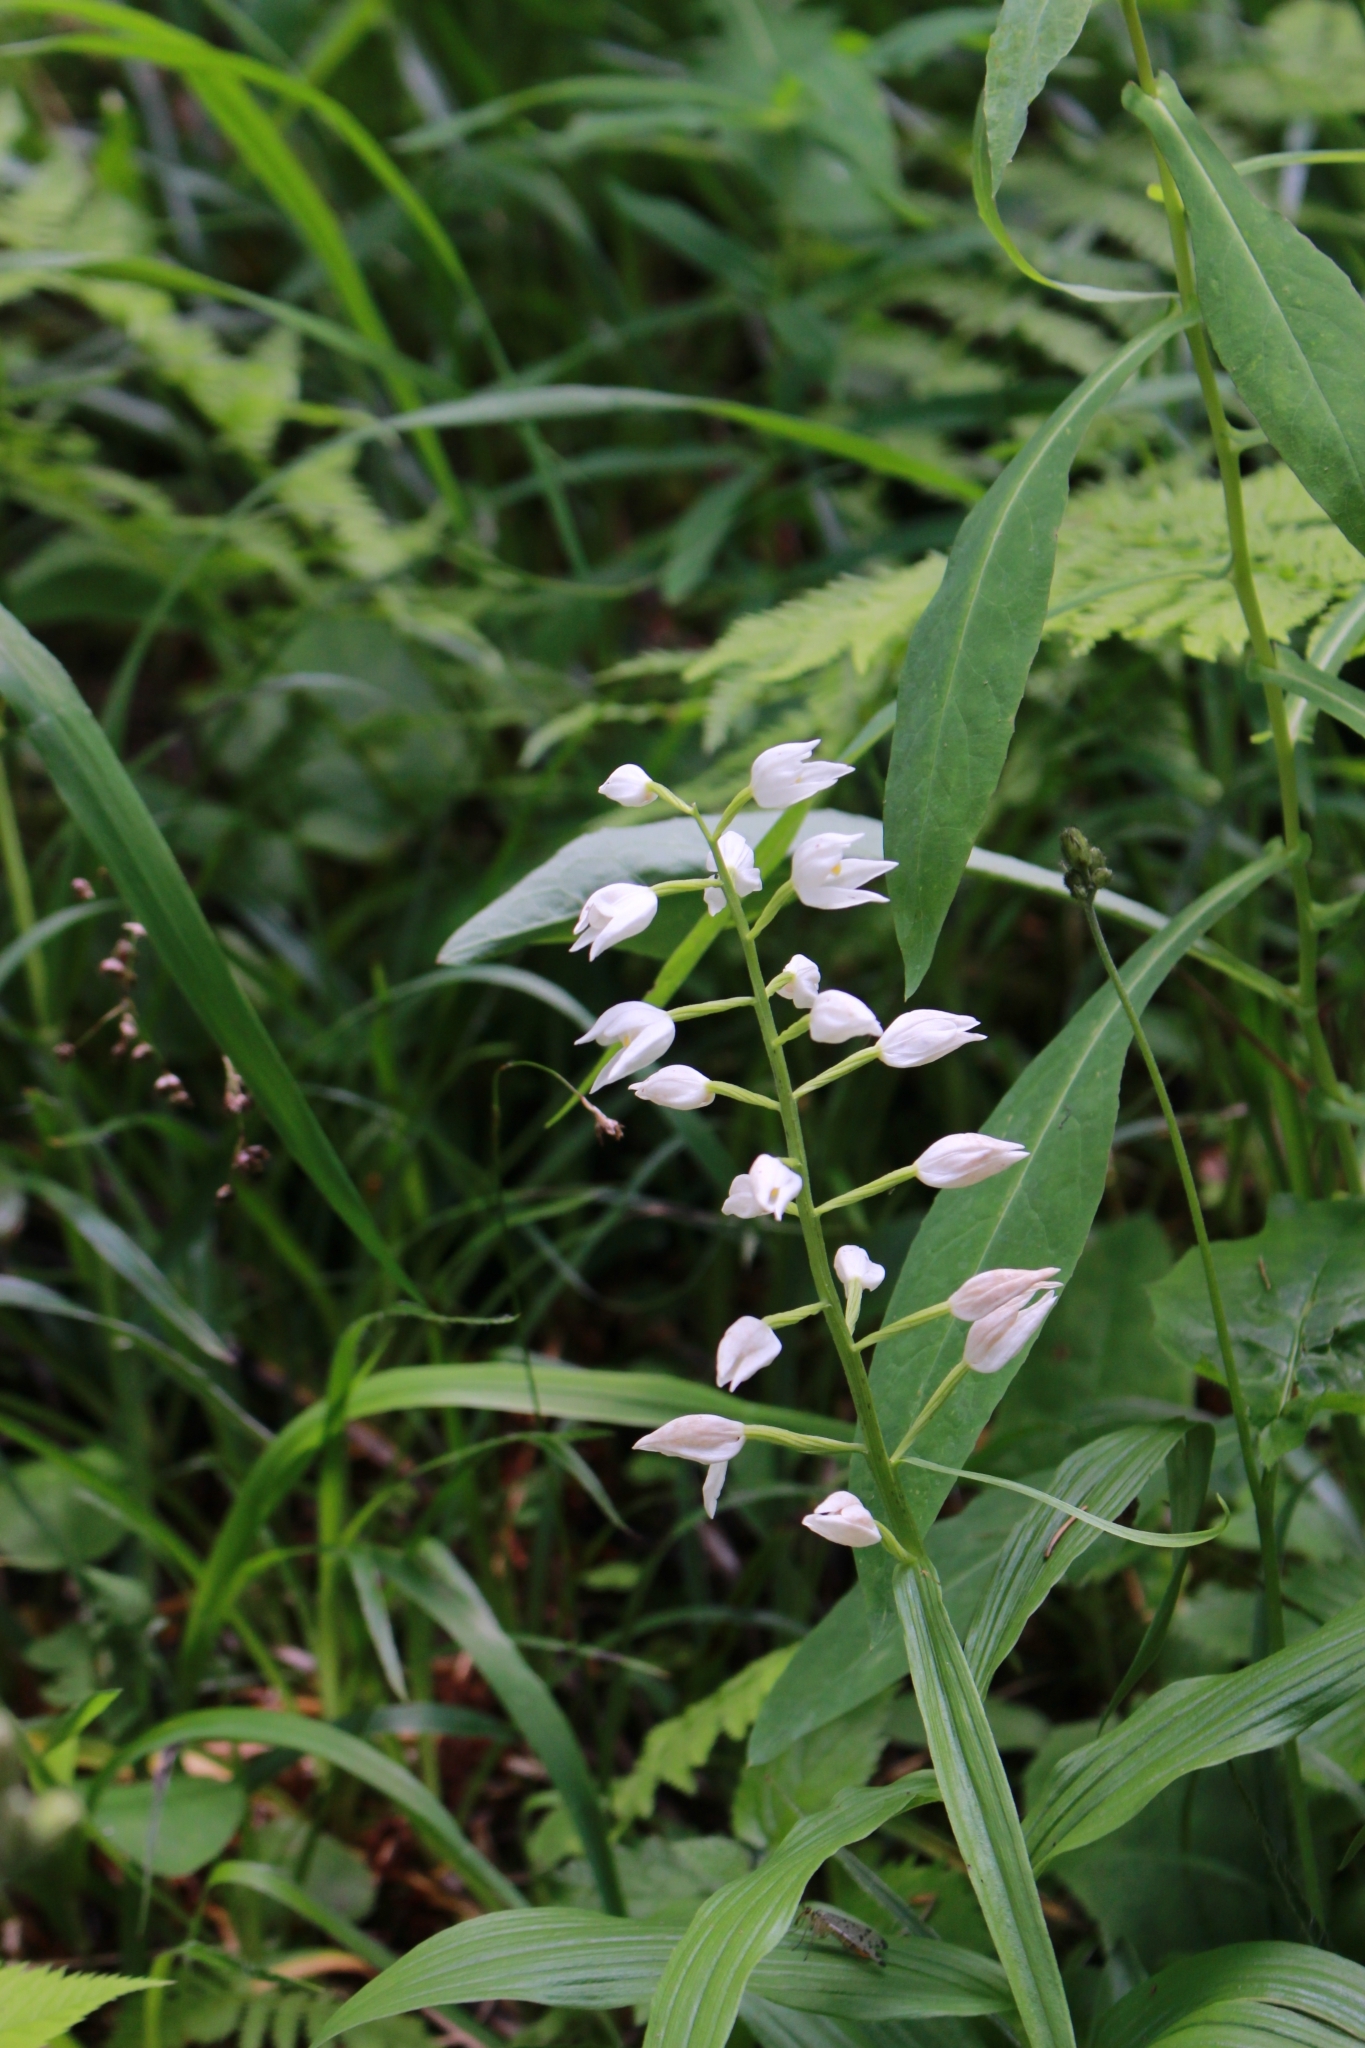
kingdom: Plantae
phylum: Tracheophyta
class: Liliopsida
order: Asparagales
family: Orchidaceae
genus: Cephalanthera
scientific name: Cephalanthera longifolia
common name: Narrow-leaved helleborine
